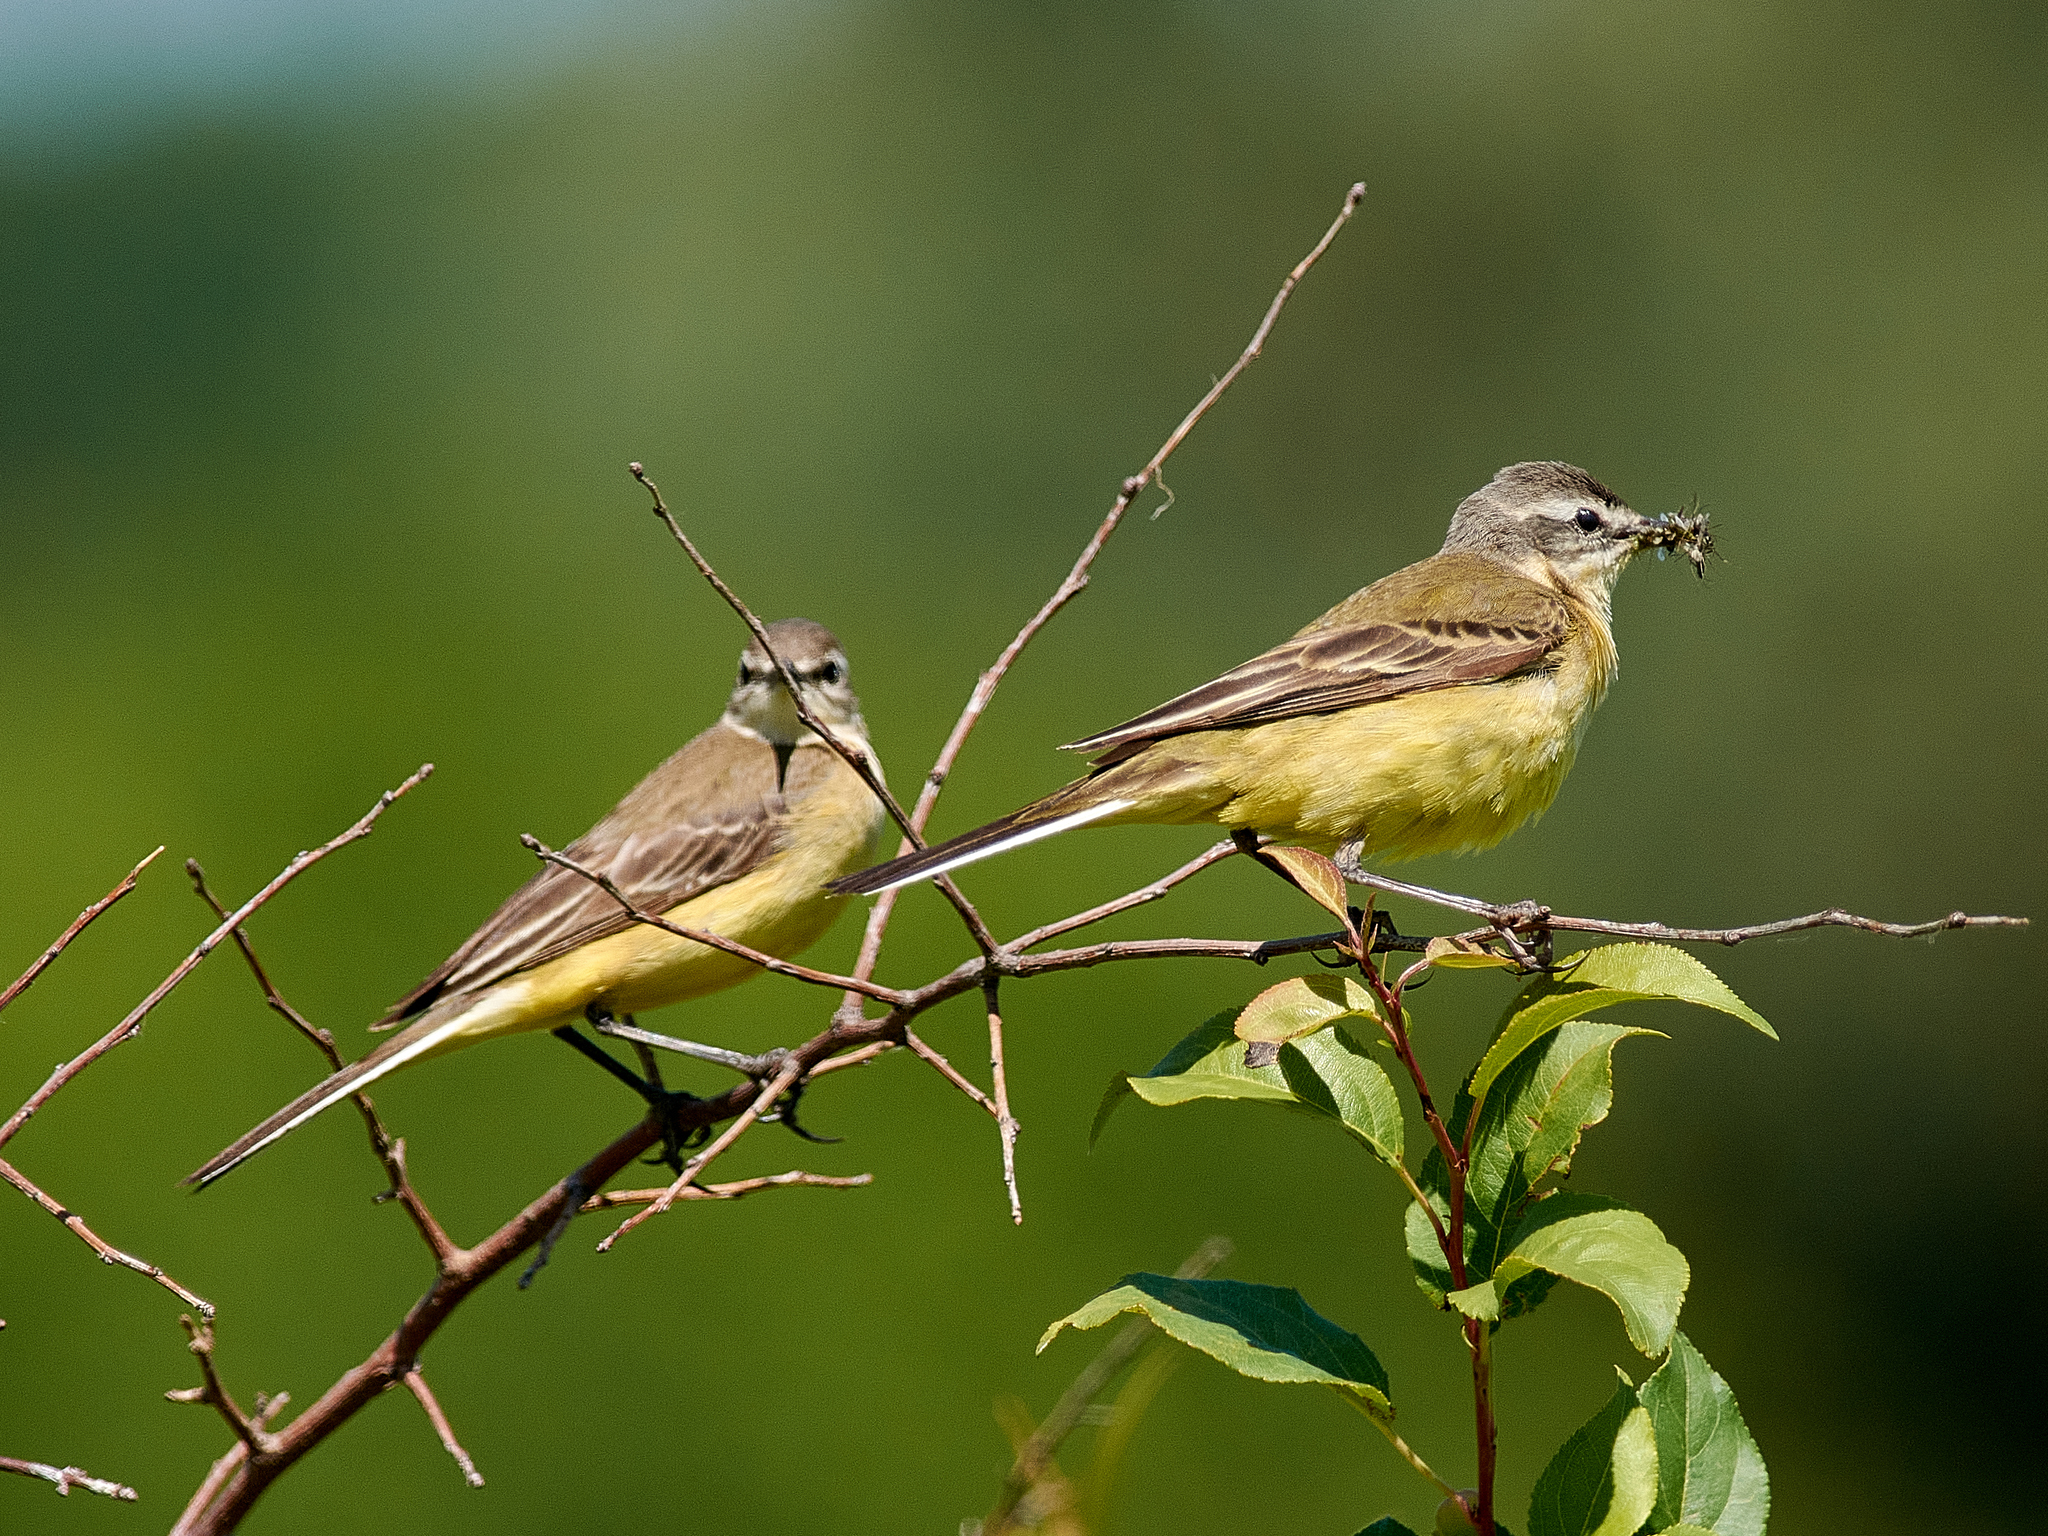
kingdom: Animalia
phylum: Chordata
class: Aves
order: Passeriformes
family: Motacillidae
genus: Motacilla
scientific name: Motacilla flava
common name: Western yellow wagtail
